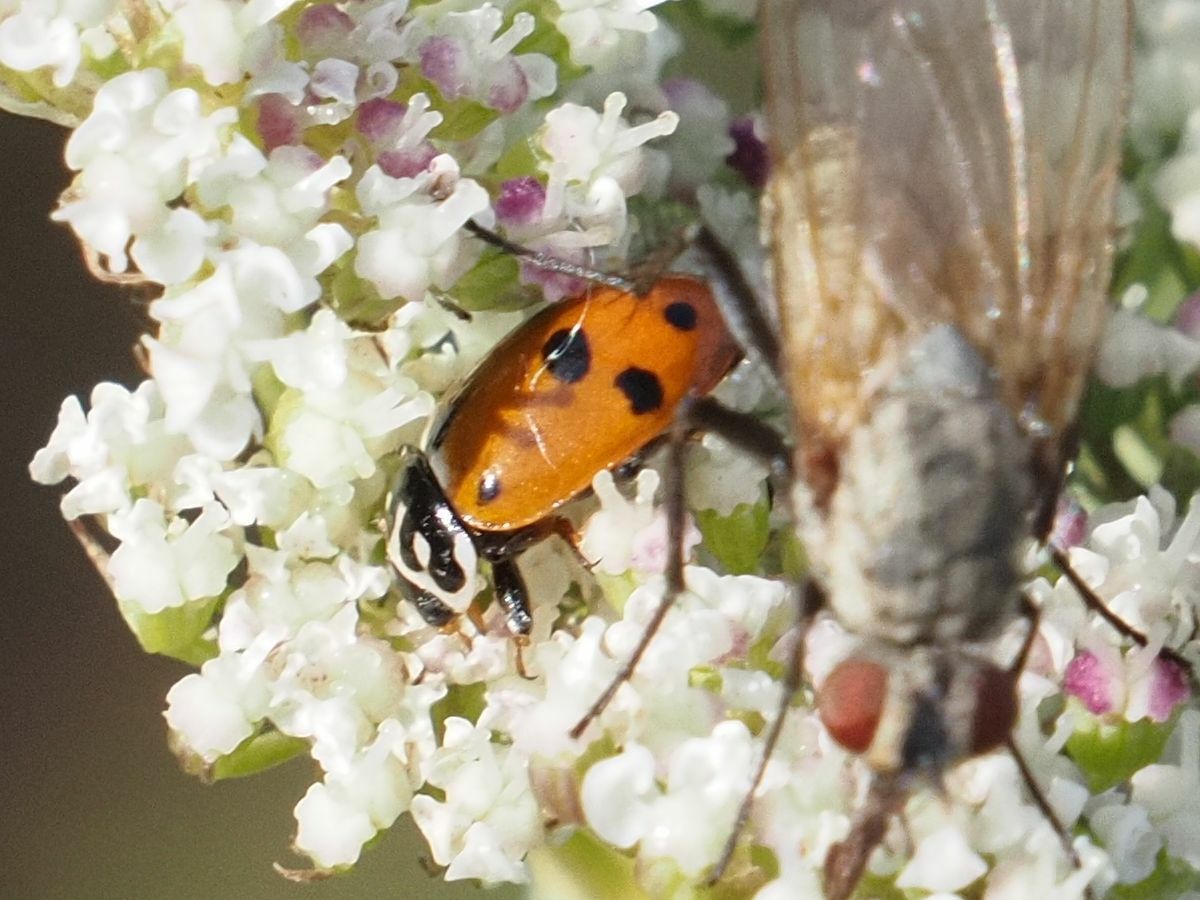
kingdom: Animalia
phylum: Arthropoda
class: Insecta
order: Coleoptera
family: Coccinellidae
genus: Hippodamia
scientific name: Hippodamia variegata
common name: Ladybird beetle
